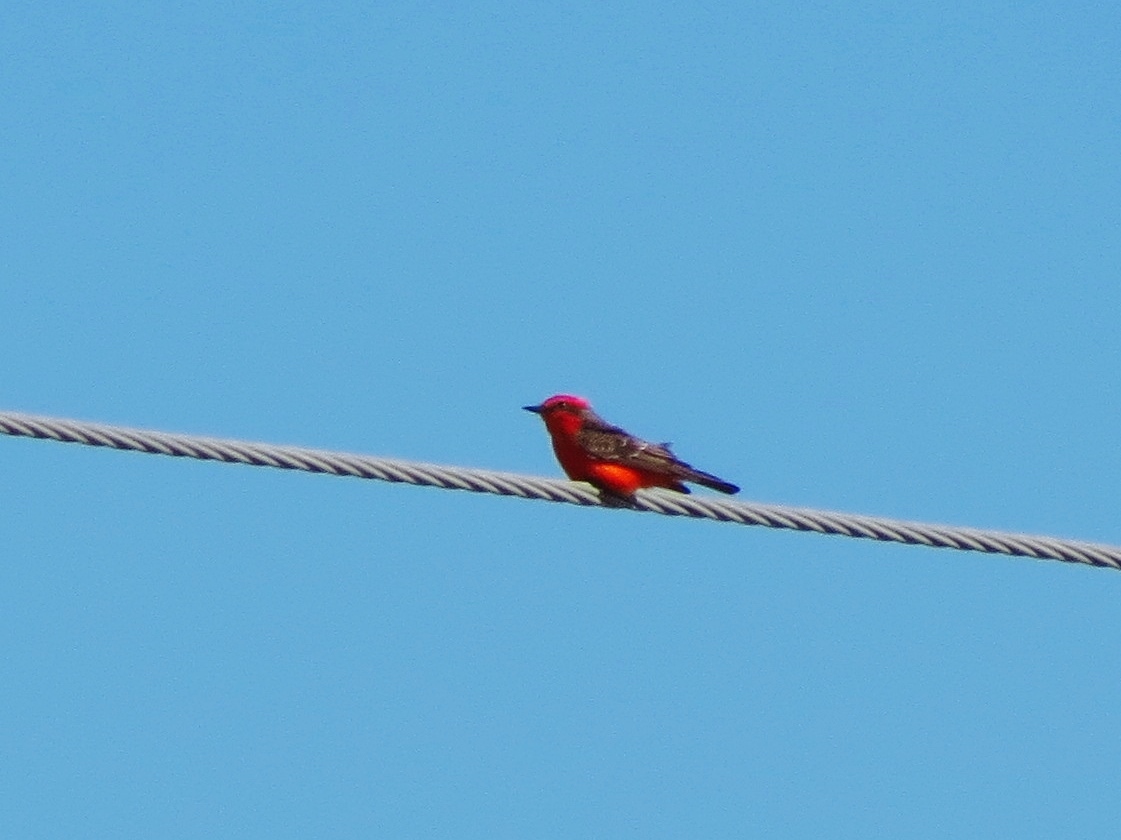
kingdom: Animalia
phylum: Chordata
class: Aves
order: Passeriformes
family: Tyrannidae
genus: Pyrocephalus
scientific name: Pyrocephalus rubinus
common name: Vermilion flycatcher
